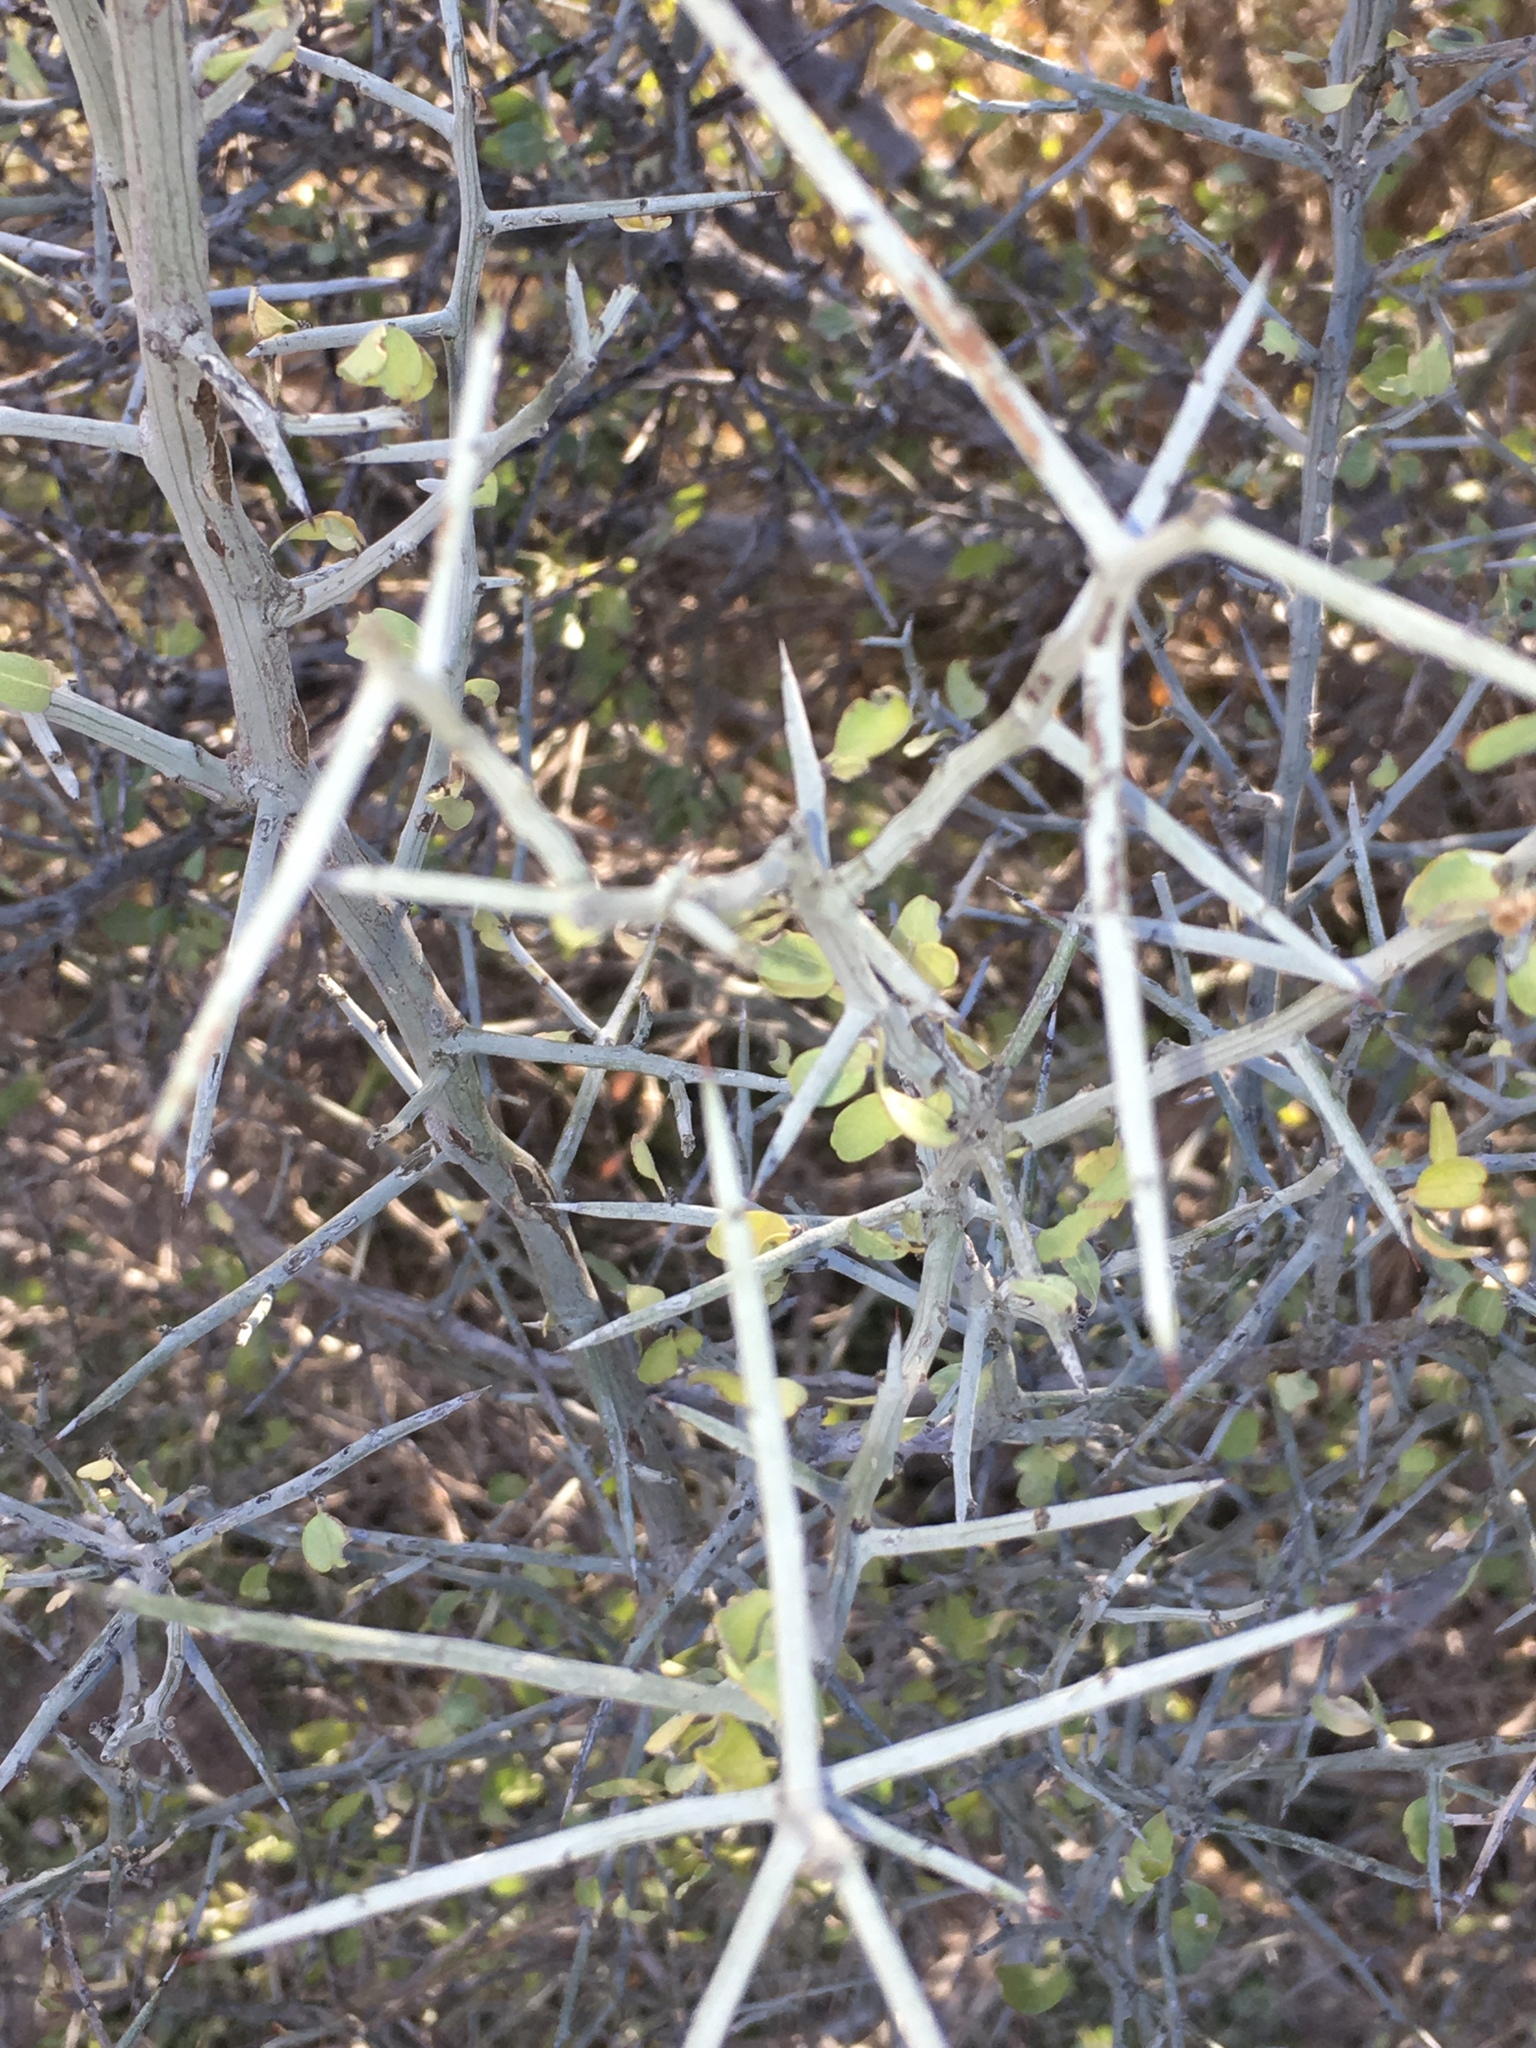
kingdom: Plantae
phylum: Tracheophyta
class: Magnoliopsida
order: Rosales
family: Rhamnaceae
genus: Sarcomphalus
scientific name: Sarcomphalus obtusifolius
